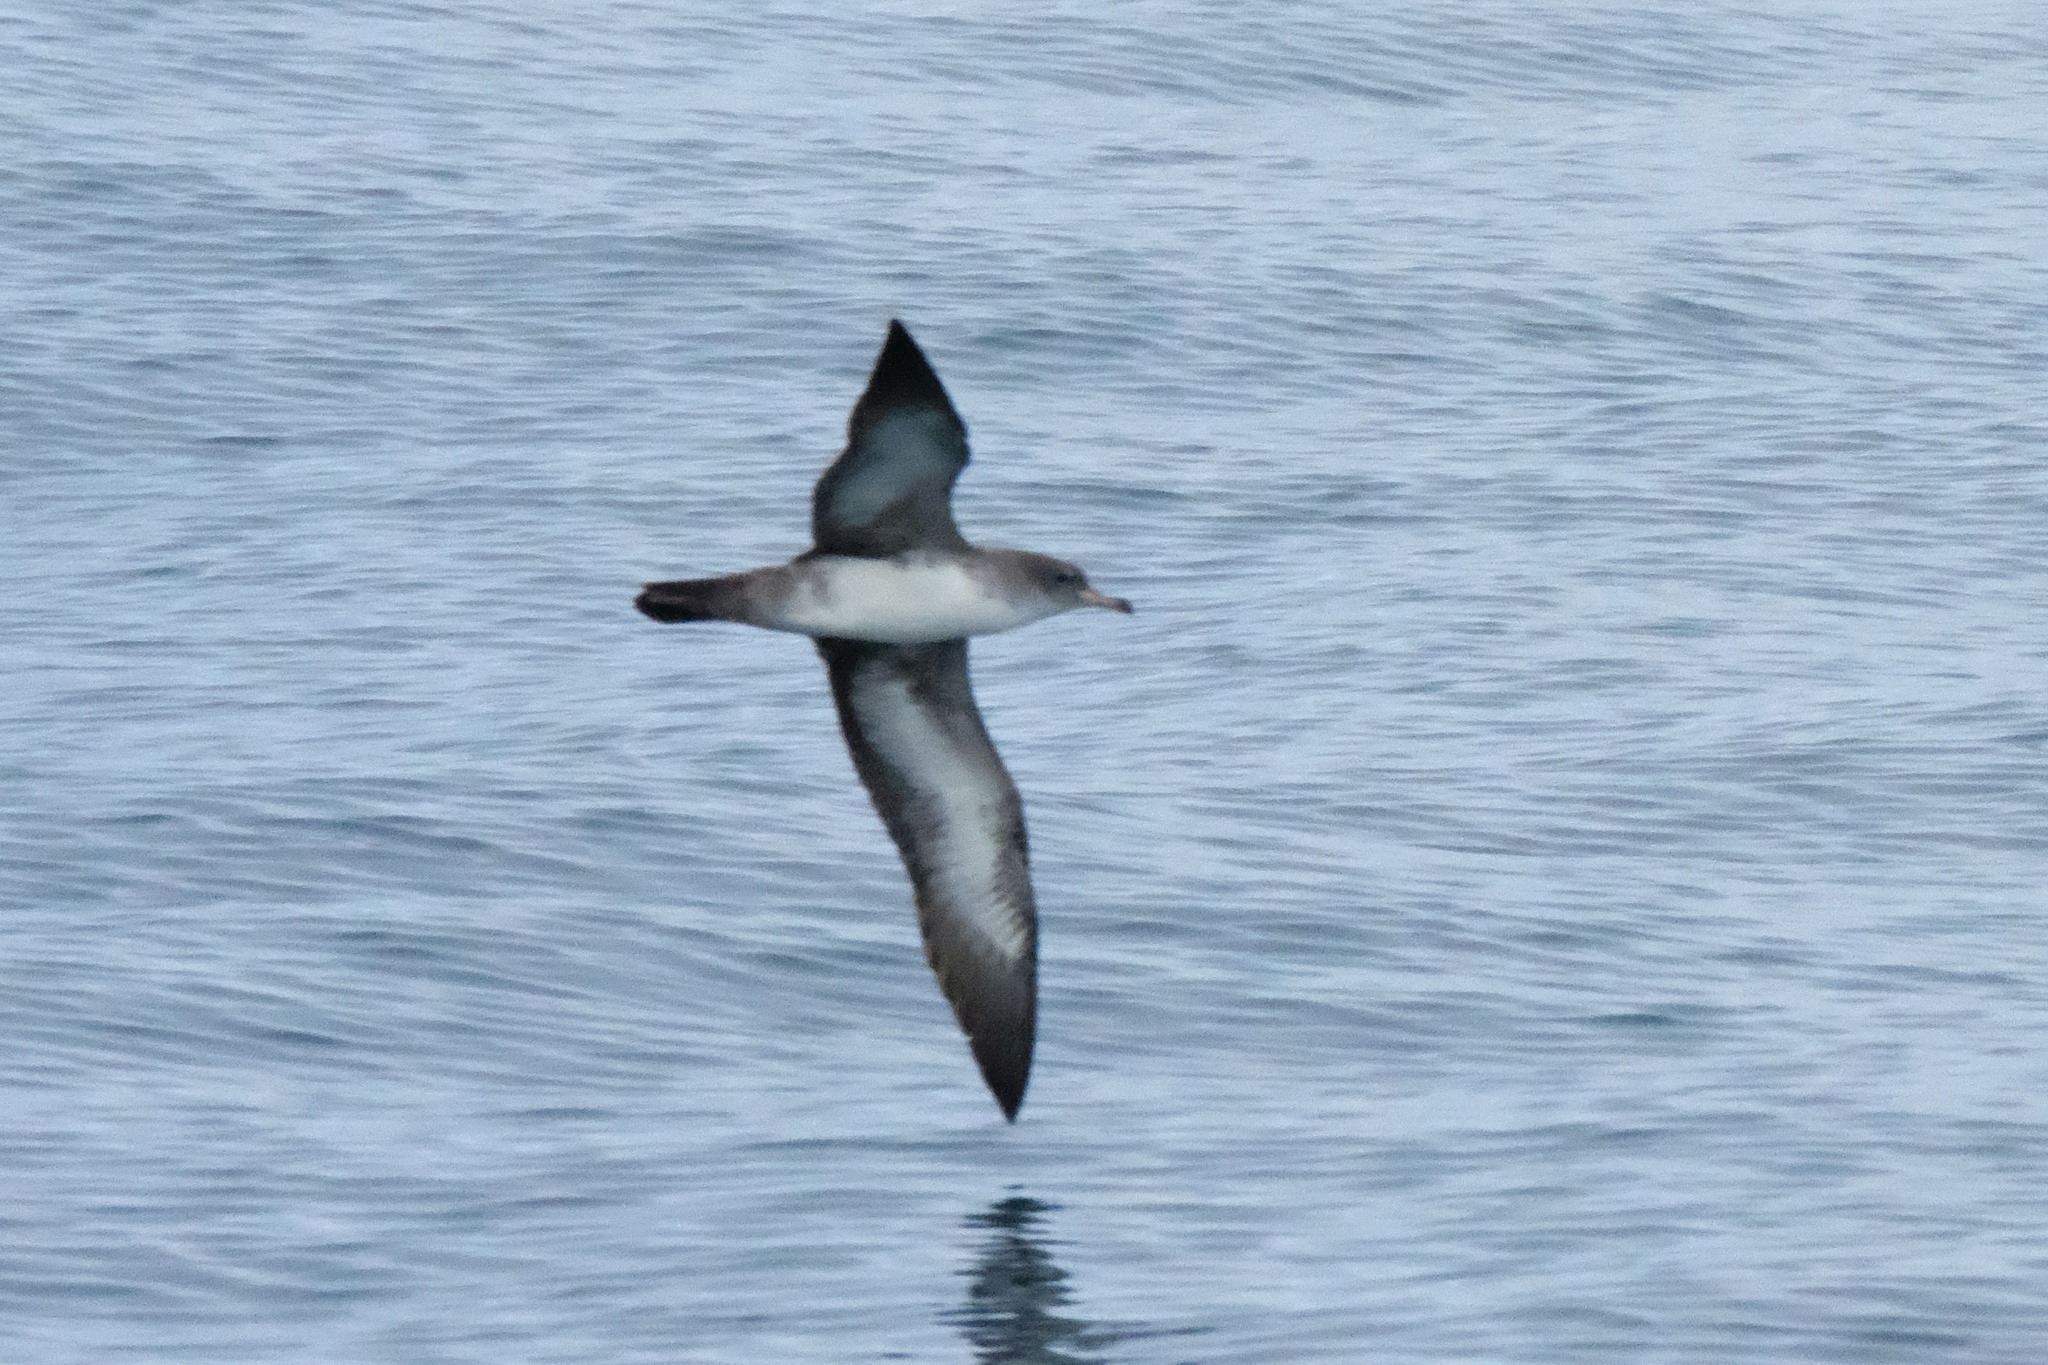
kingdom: Animalia
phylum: Chordata
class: Aves
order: Procellariiformes
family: Procellariidae
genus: Puffinus
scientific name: Puffinus creatopus
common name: Pink-footed shearwater
